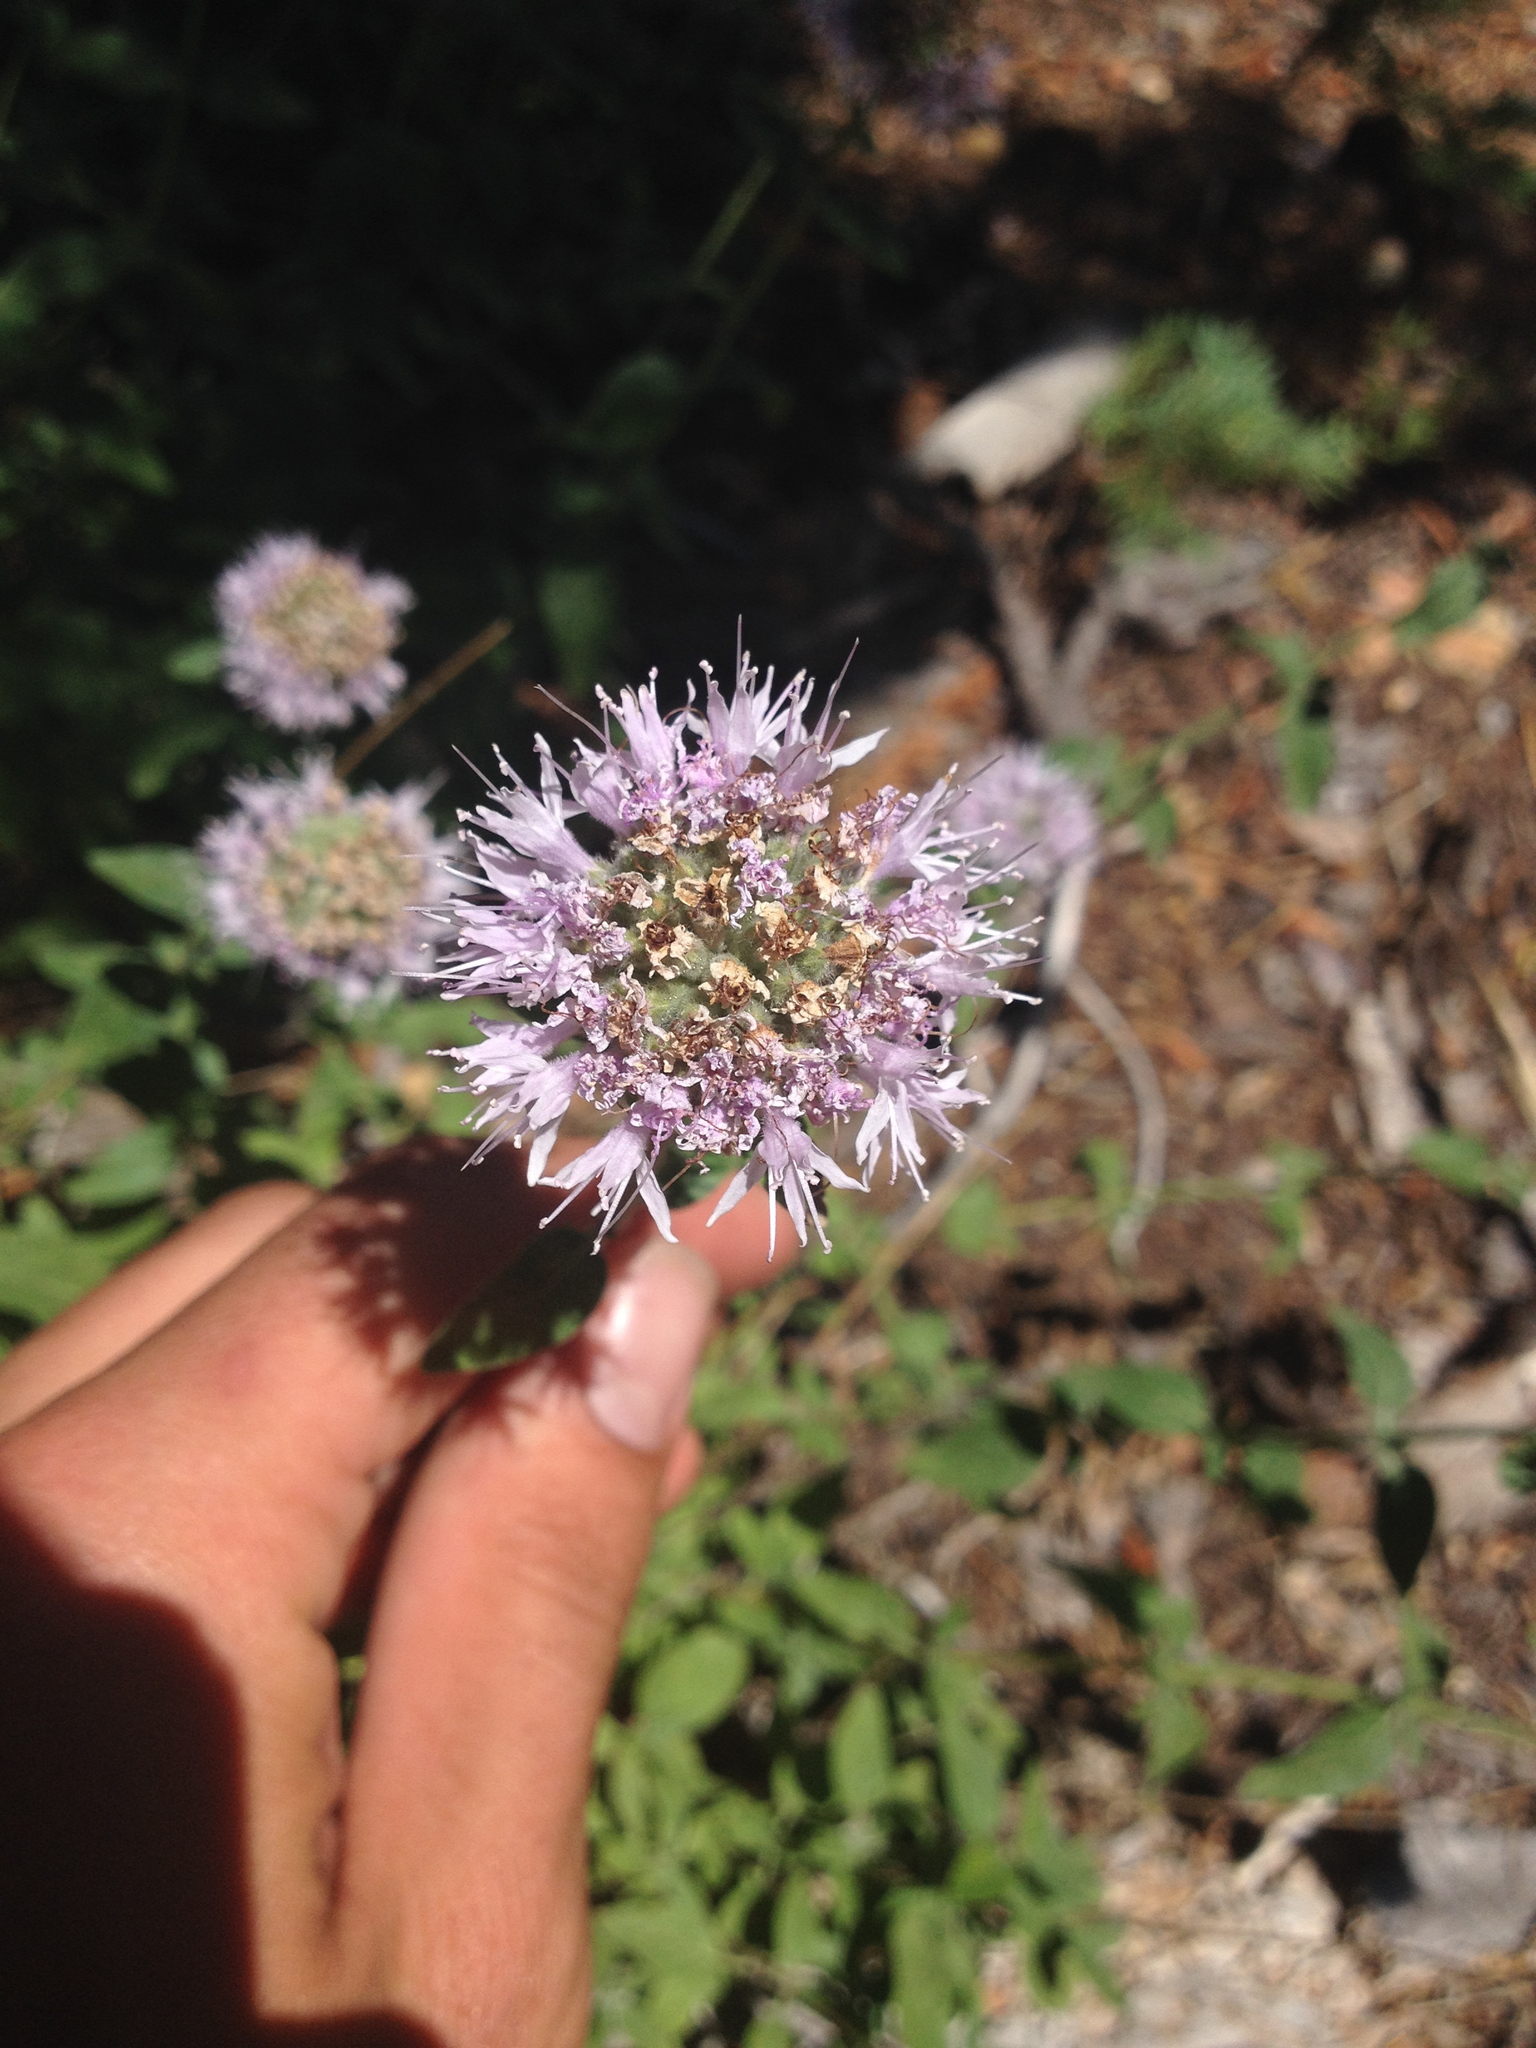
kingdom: Plantae
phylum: Tracheophyta
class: Magnoliopsida
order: Lamiales
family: Lamiaceae
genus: Monardella
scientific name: Monardella odoratissima
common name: Pacific monardella
